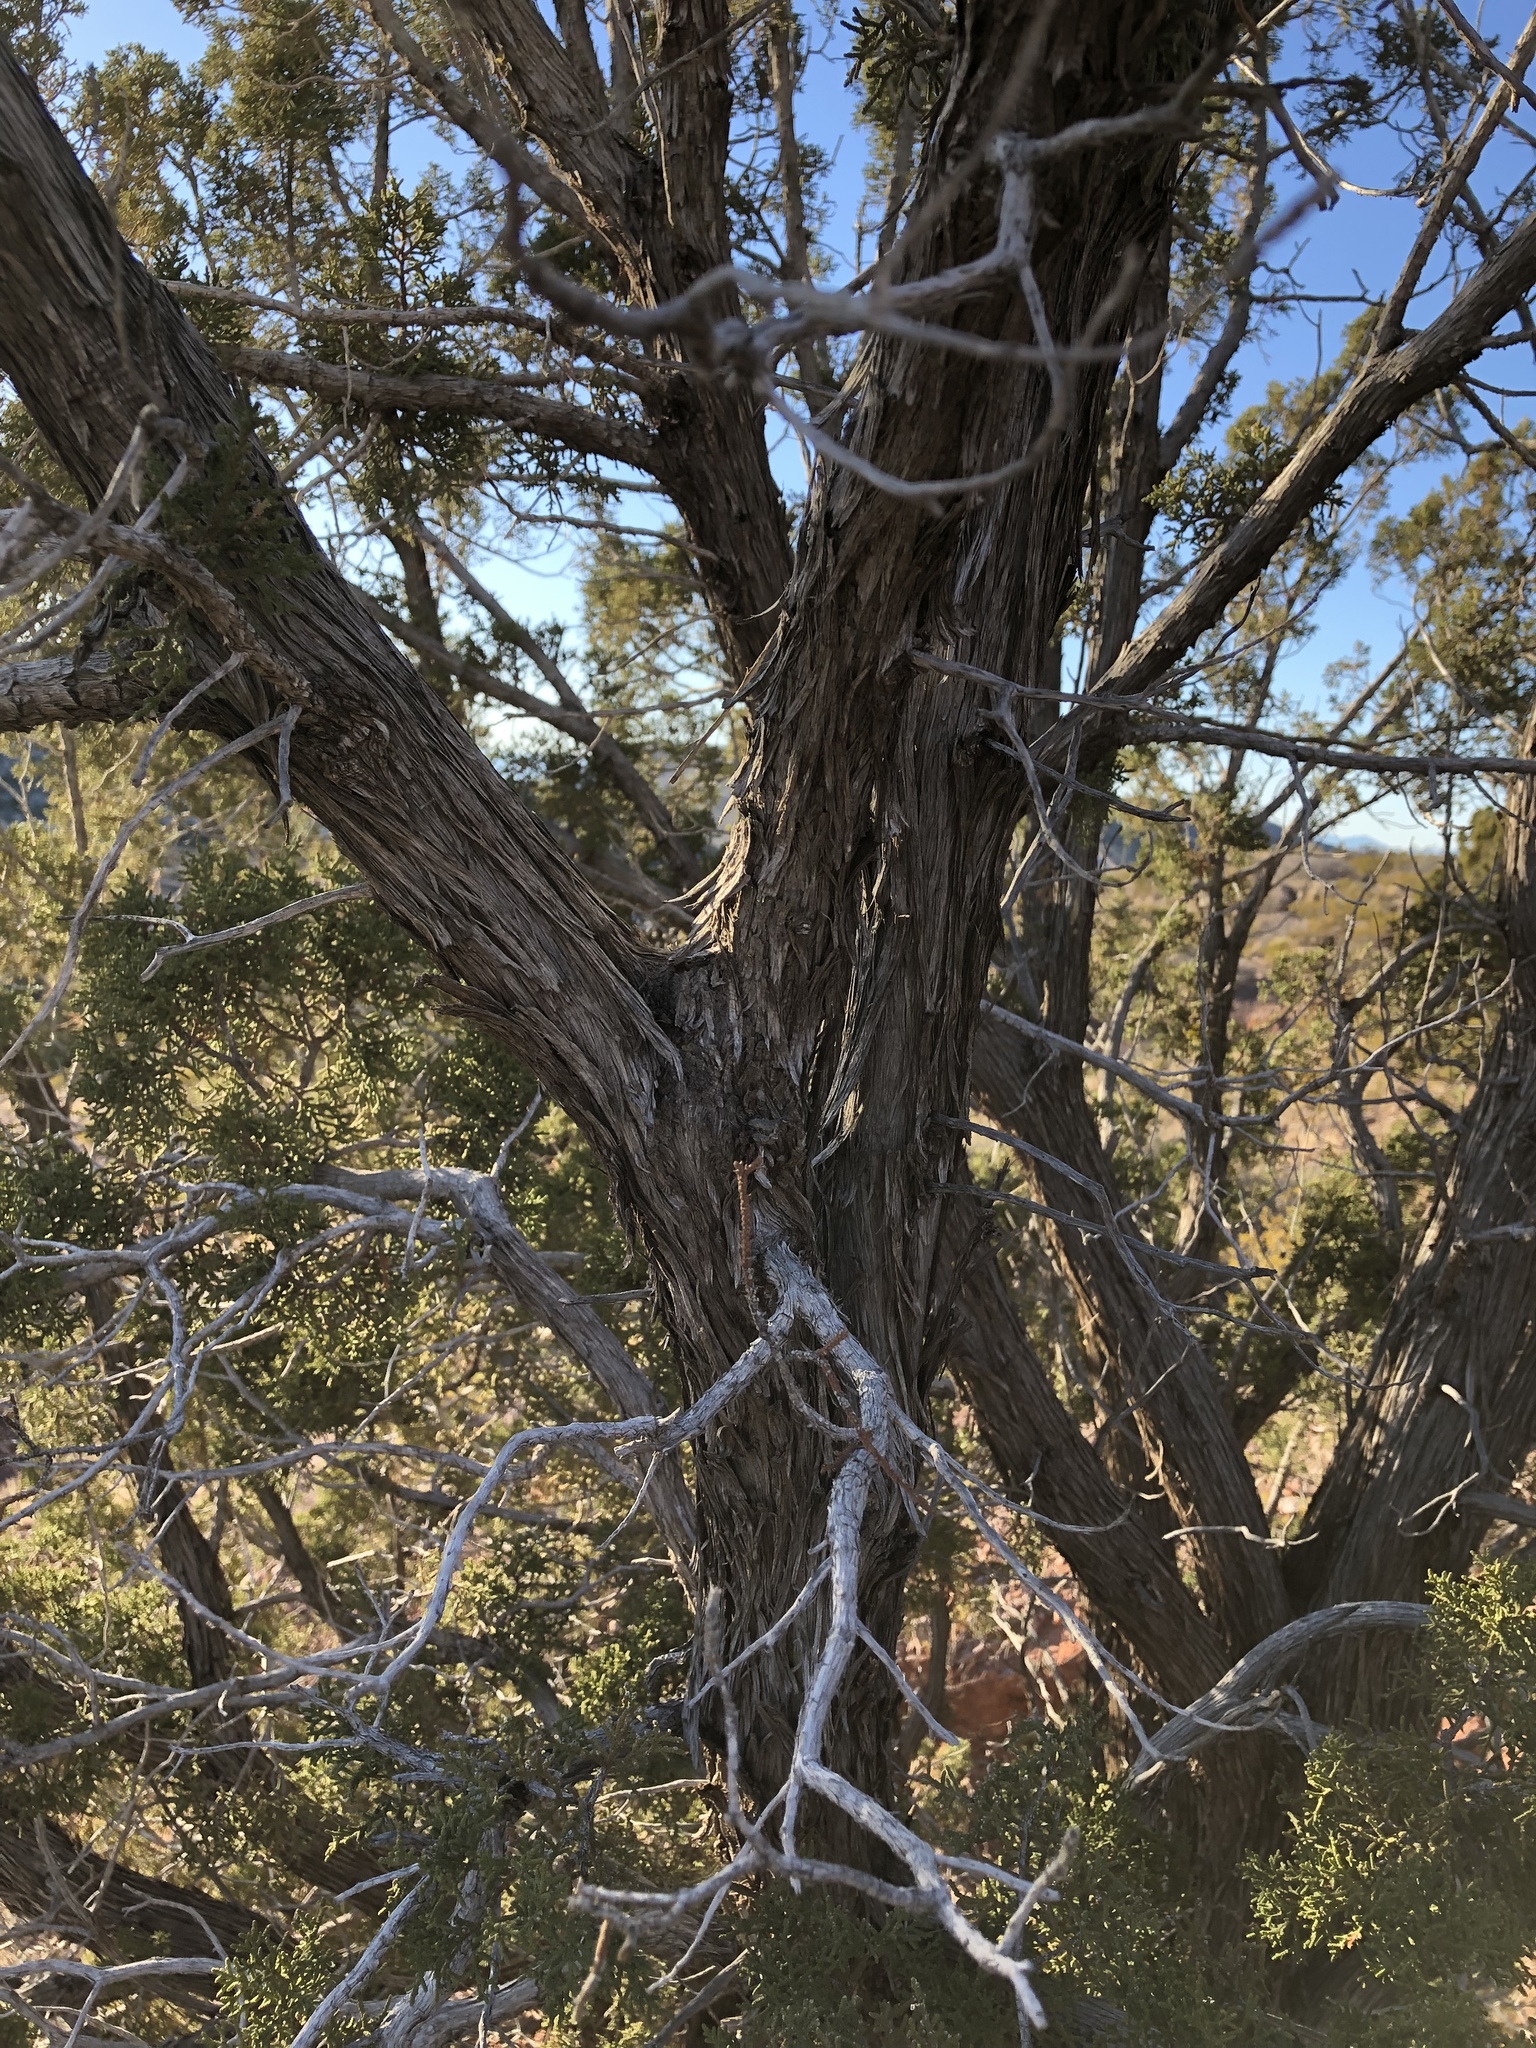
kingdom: Plantae
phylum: Tracheophyta
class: Pinopsida
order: Pinales
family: Cupressaceae
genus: Juniperus
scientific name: Juniperus monosperma
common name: One-seed juniper
